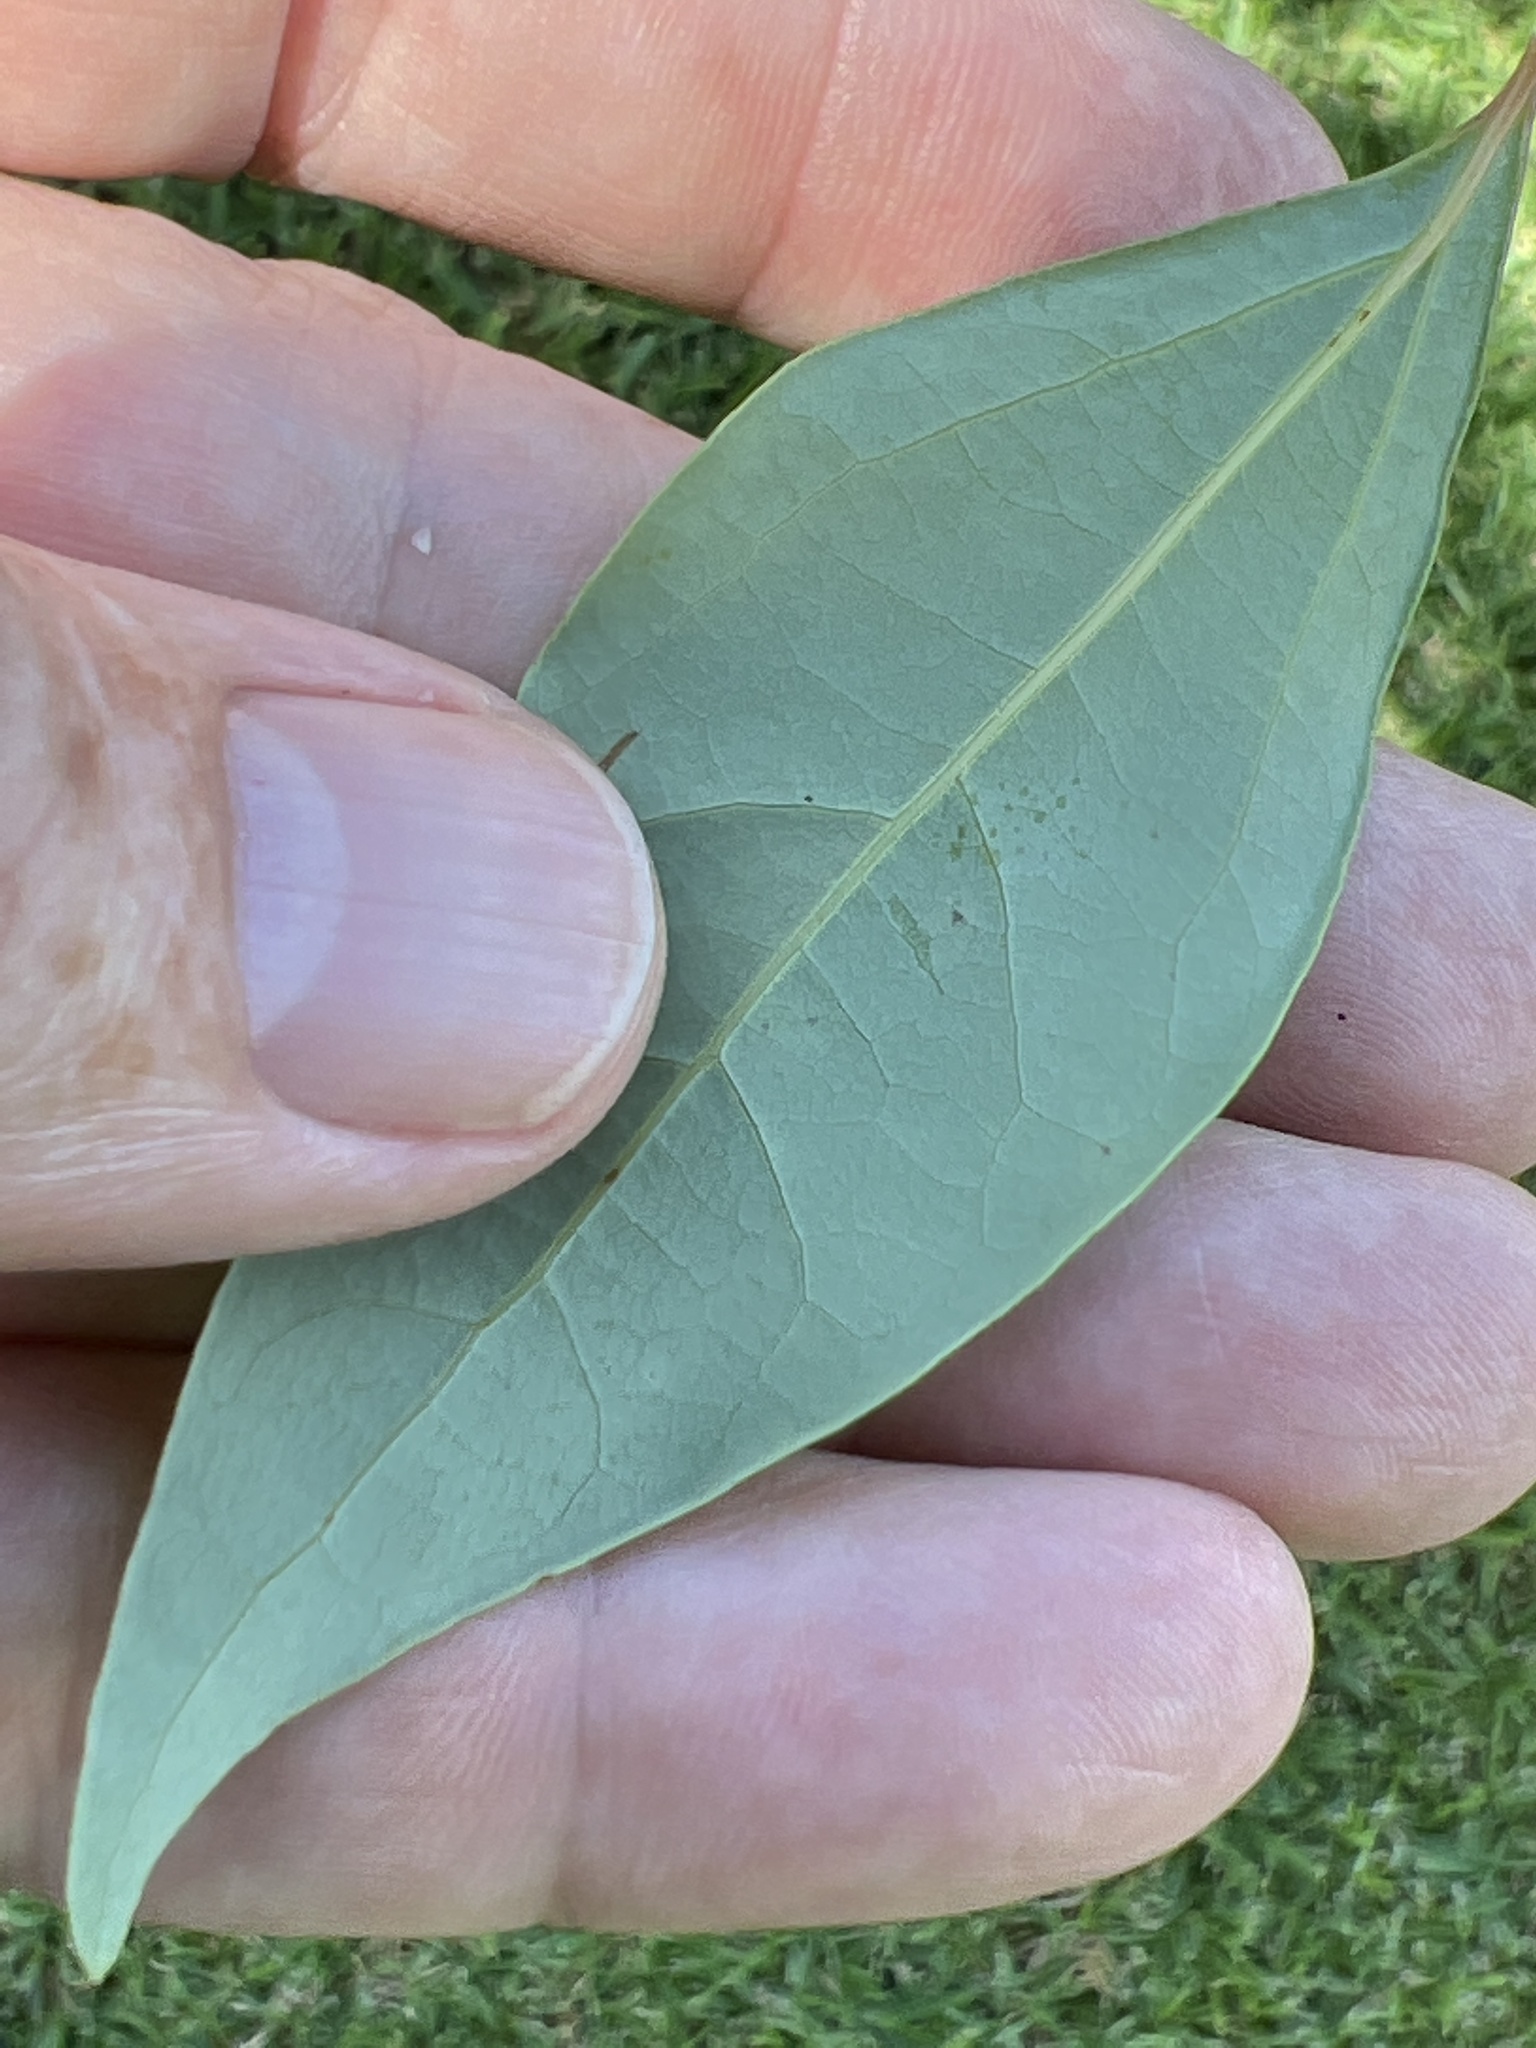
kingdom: Plantae
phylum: Tracheophyta
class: Magnoliopsida
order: Laurales
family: Lauraceae
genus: Cinnamomum
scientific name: Cinnamomum camphora
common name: Camphortree
